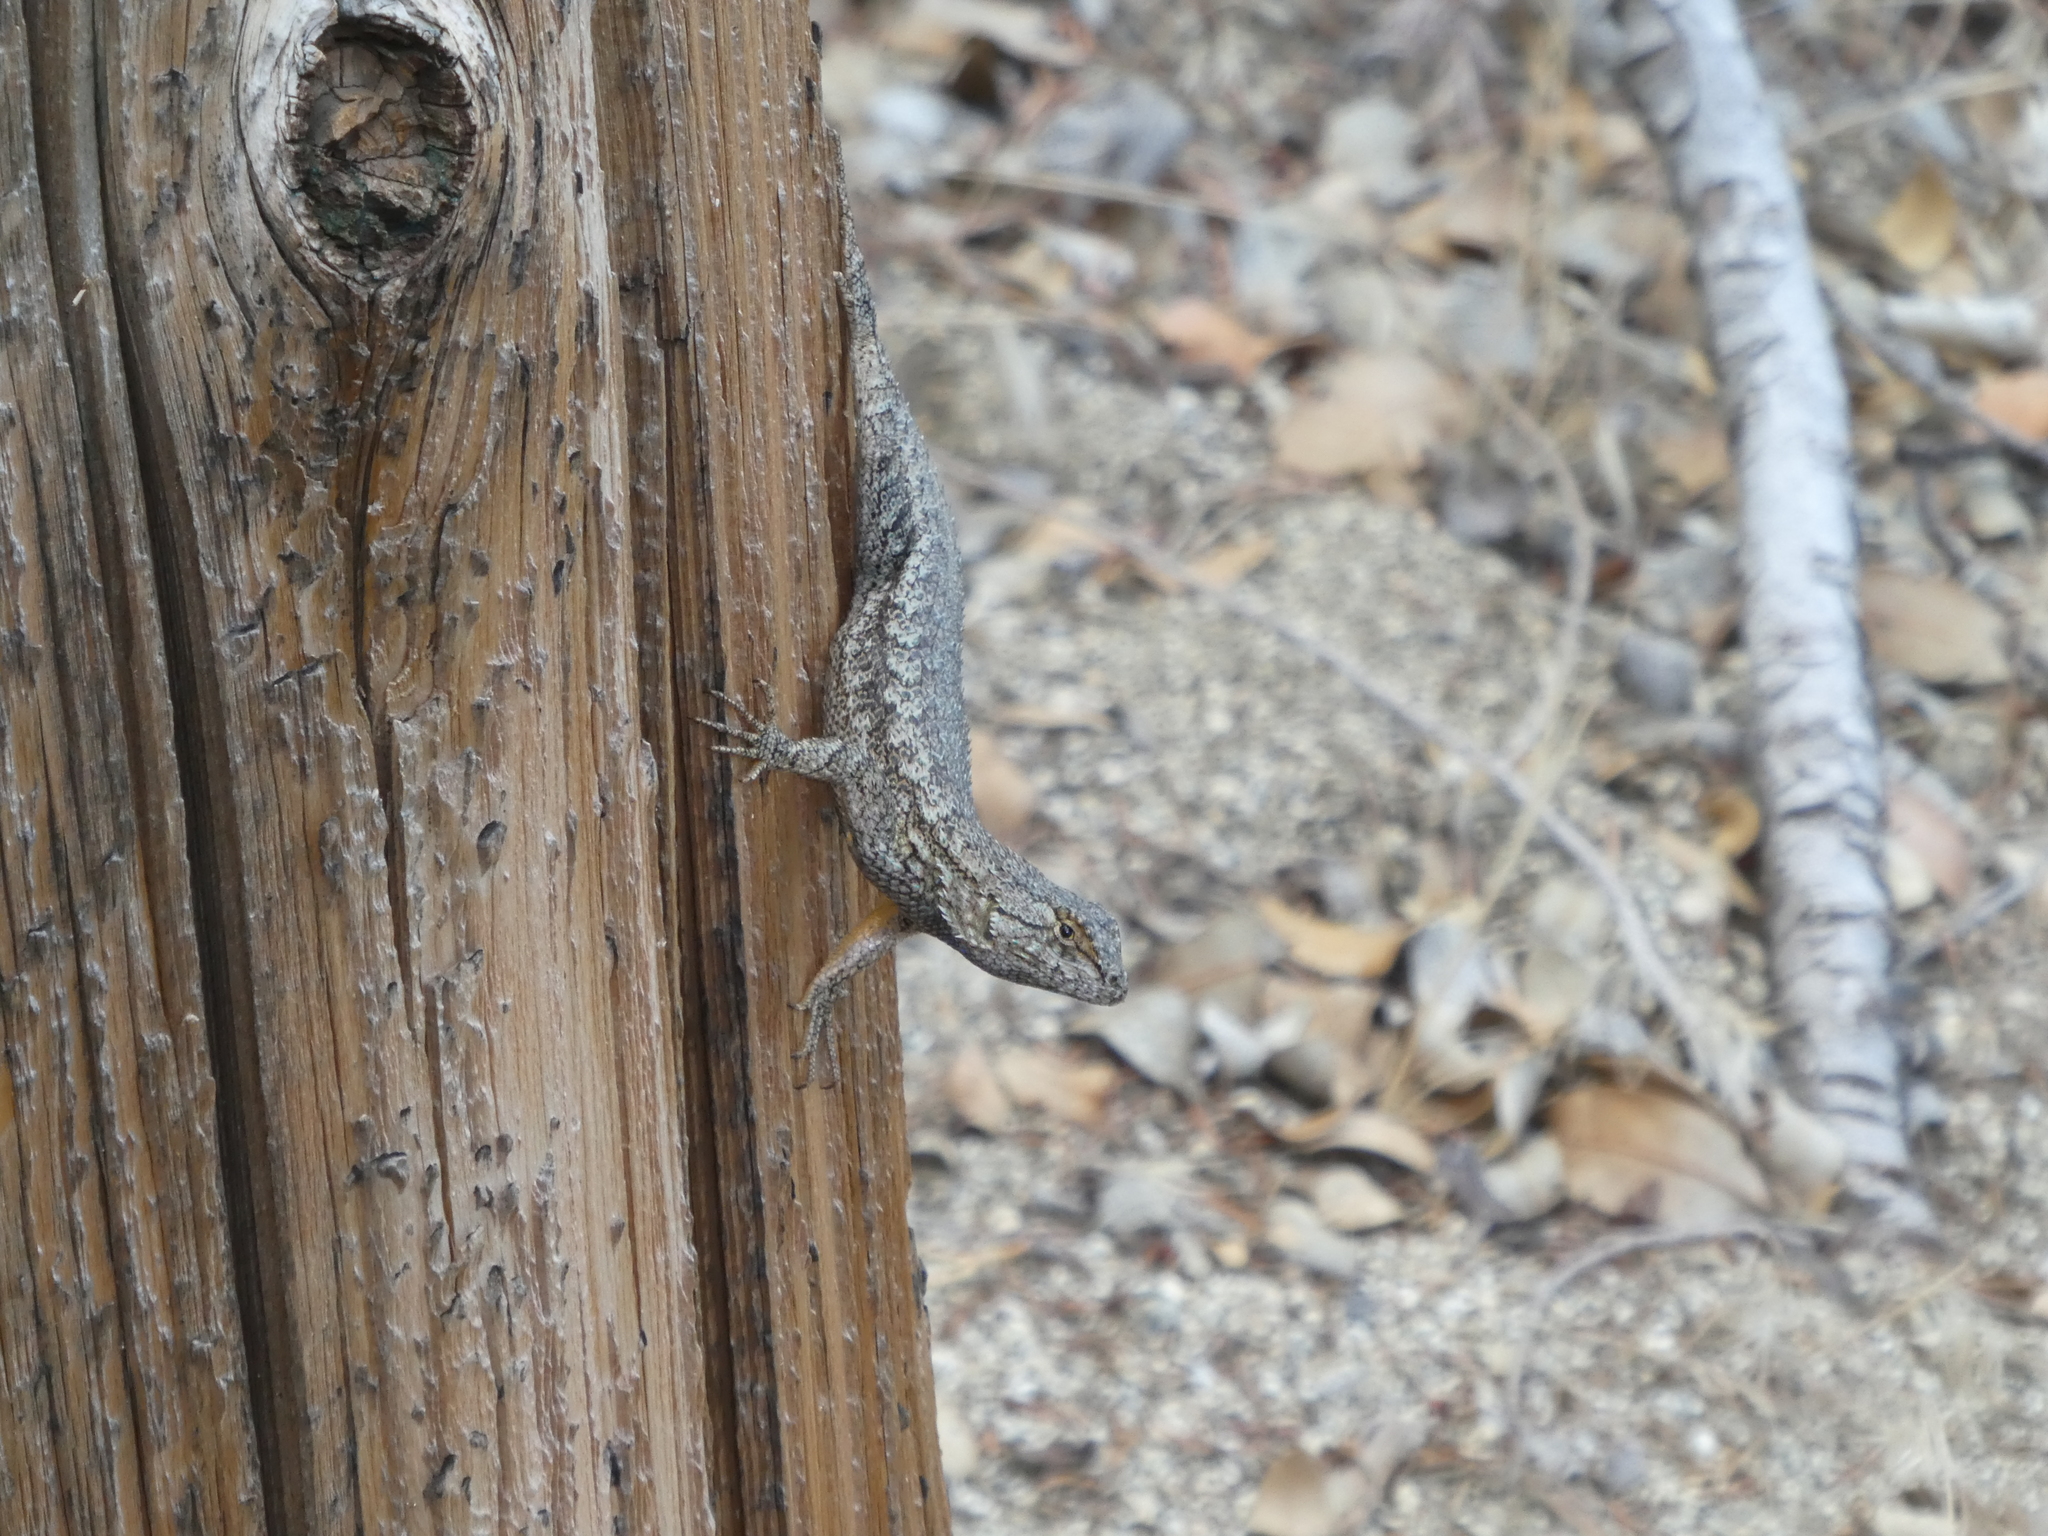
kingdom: Animalia
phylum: Chordata
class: Squamata
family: Phrynosomatidae
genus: Sceloporus
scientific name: Sceloporus occidentalis
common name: Western fence lizard
